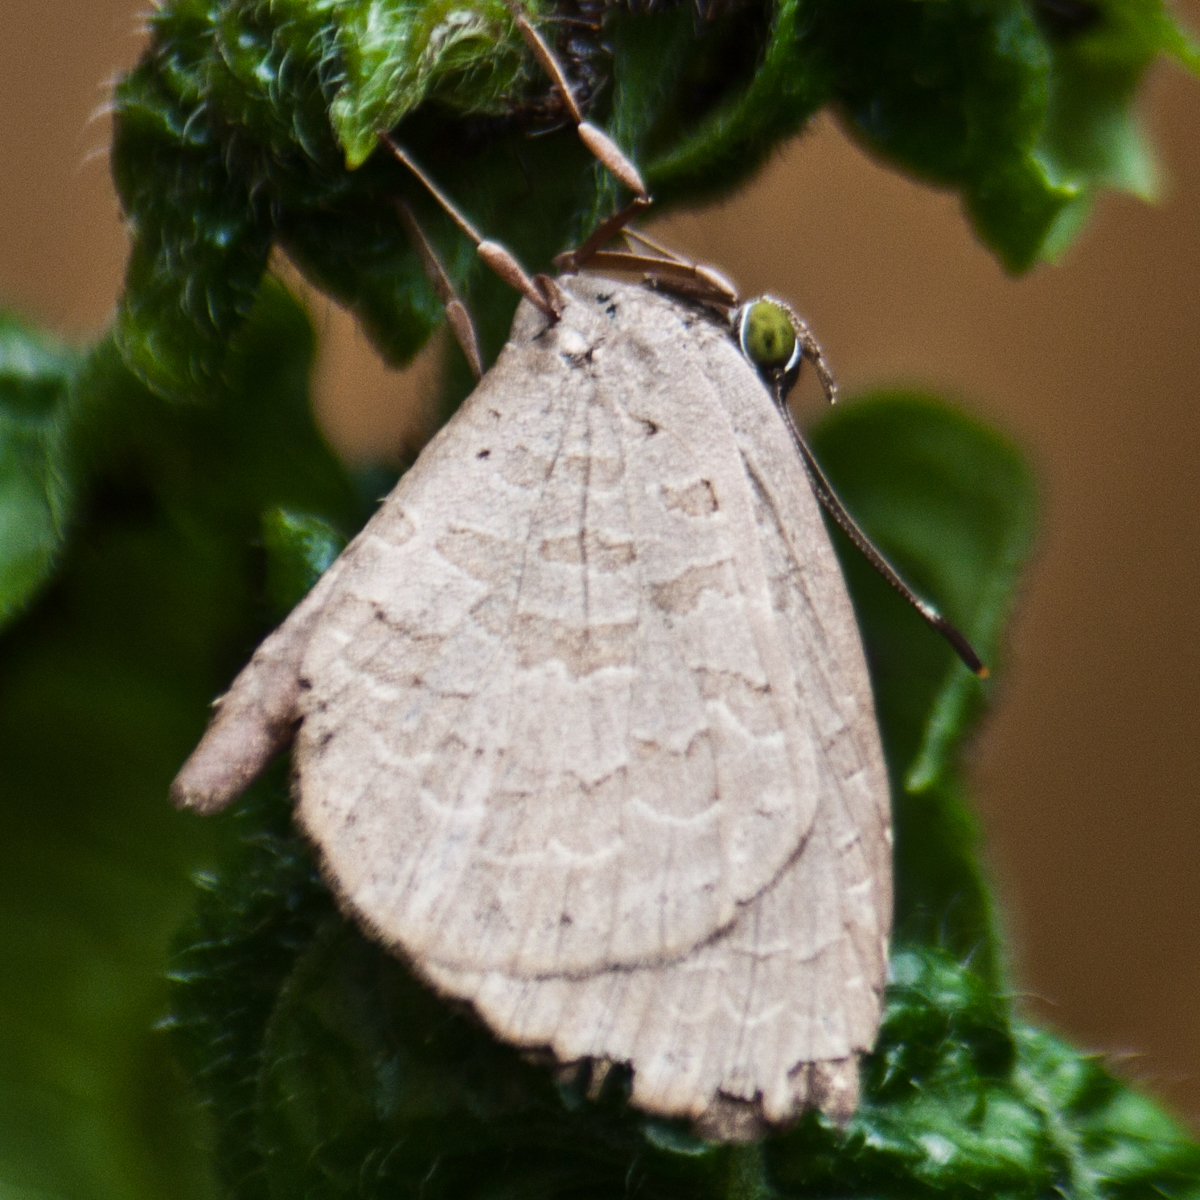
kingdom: Animalia
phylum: Arthropoda
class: Insecta
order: Lepidoptera
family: Lycaenidae
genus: Miletus
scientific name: Miletus chinensis
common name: Common brownie
